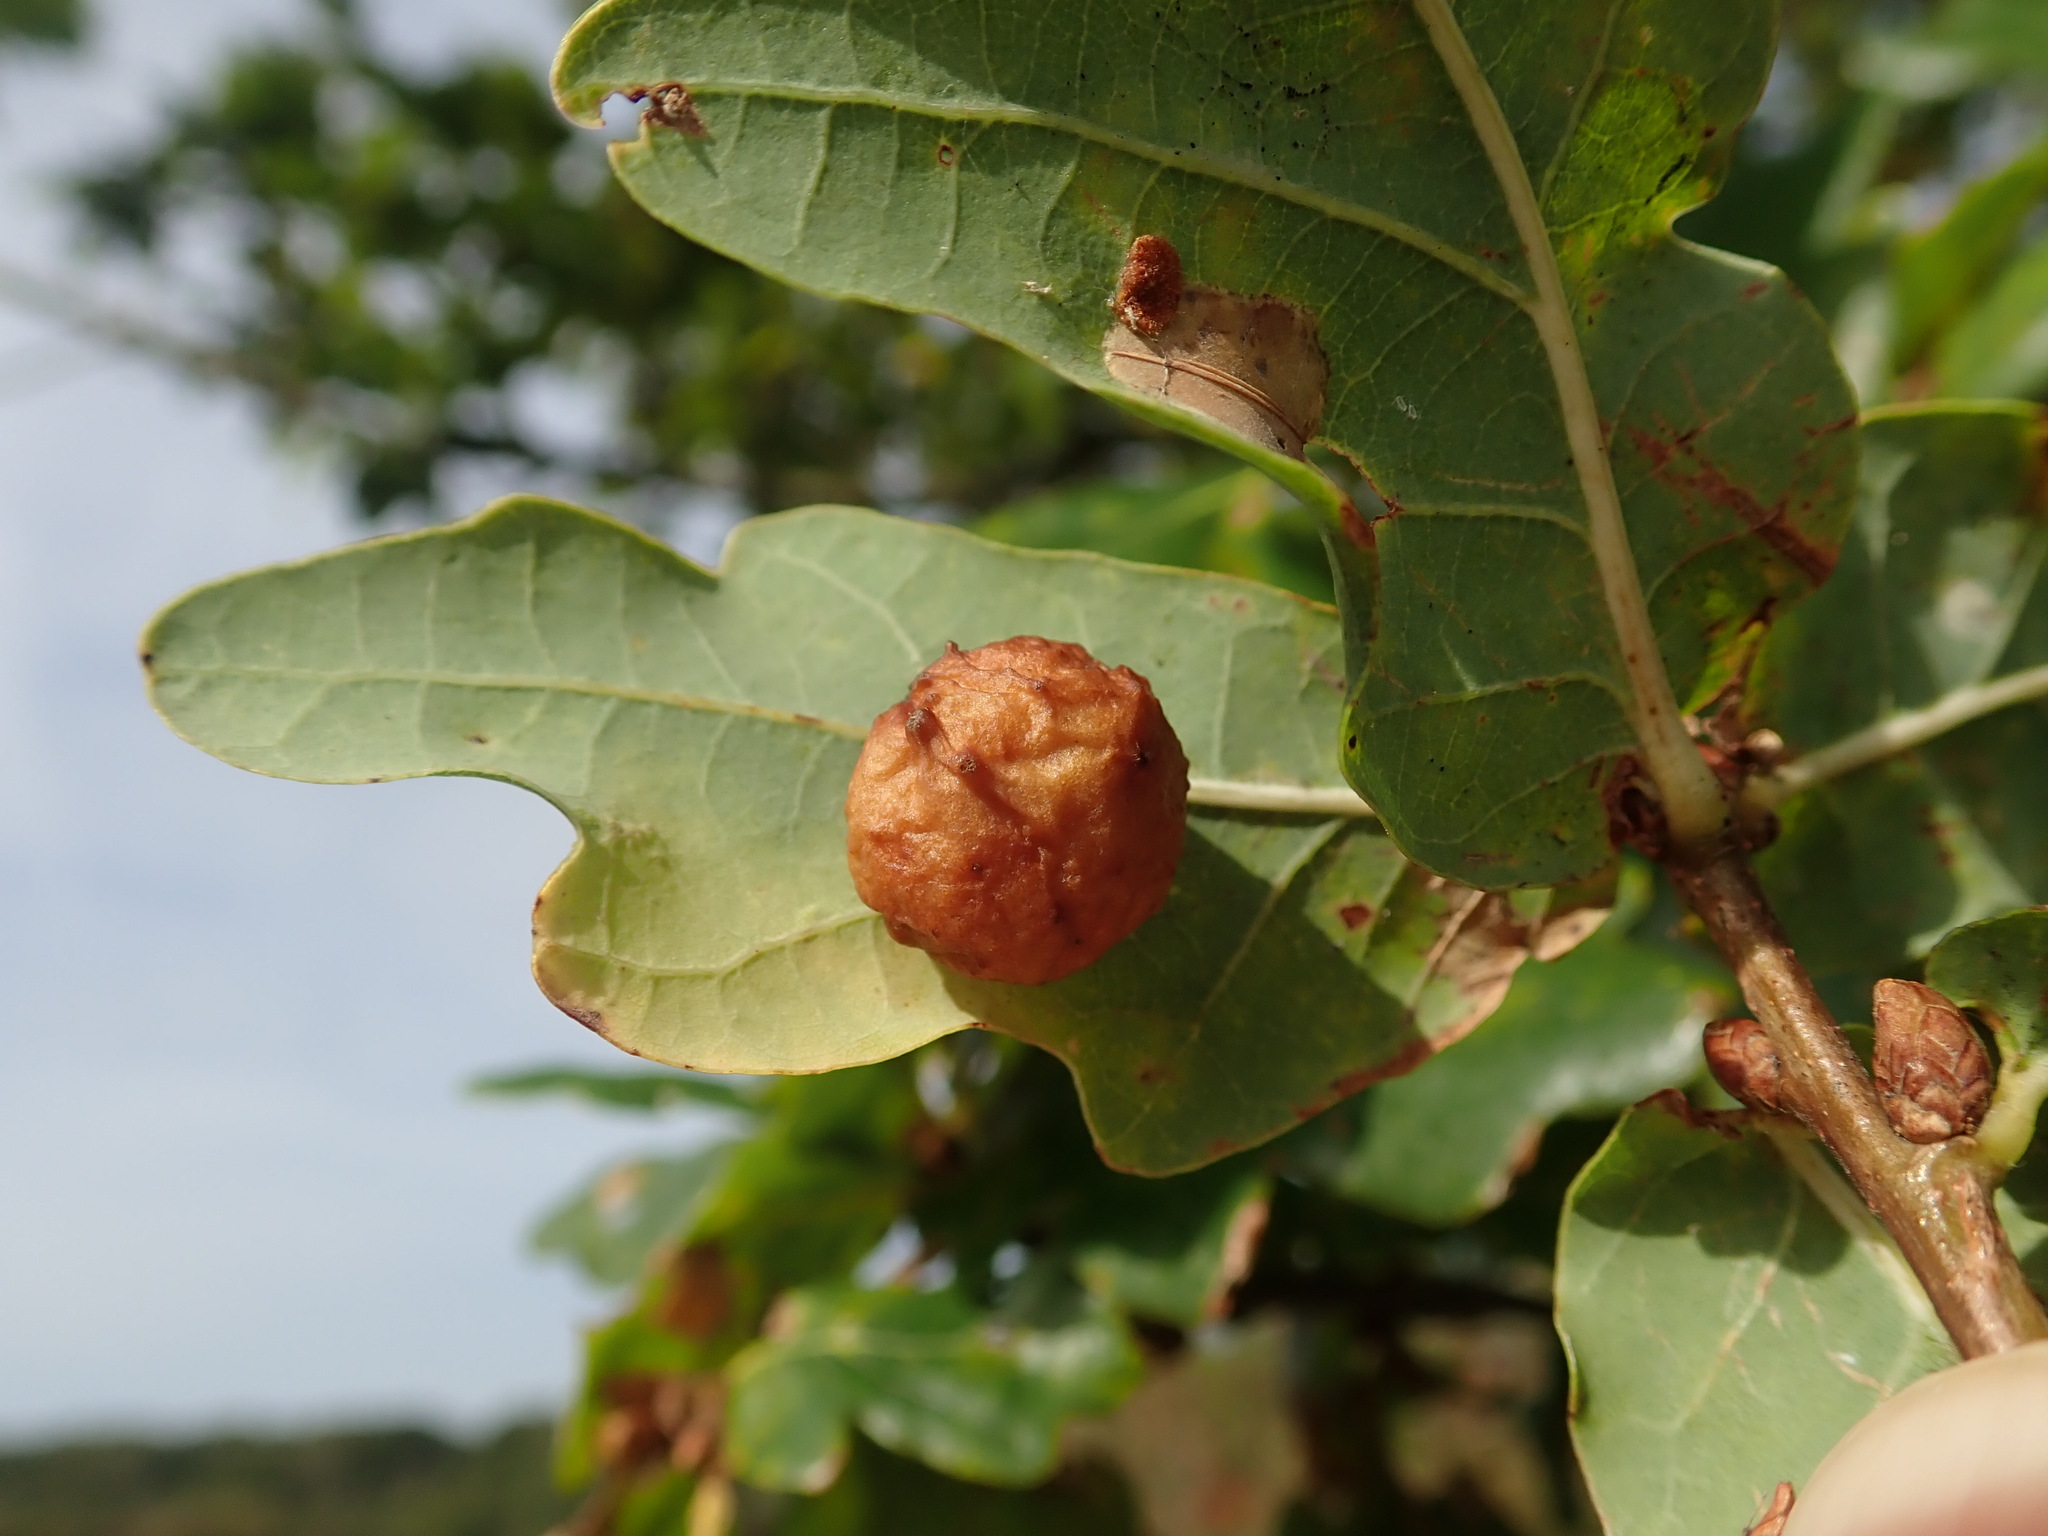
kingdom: Animalia
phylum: Arthropoda
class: Insecta
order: Hymenoptera
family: Cynipidae
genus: Cynips
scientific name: Cynips quercusfolii
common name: Cherry gall
